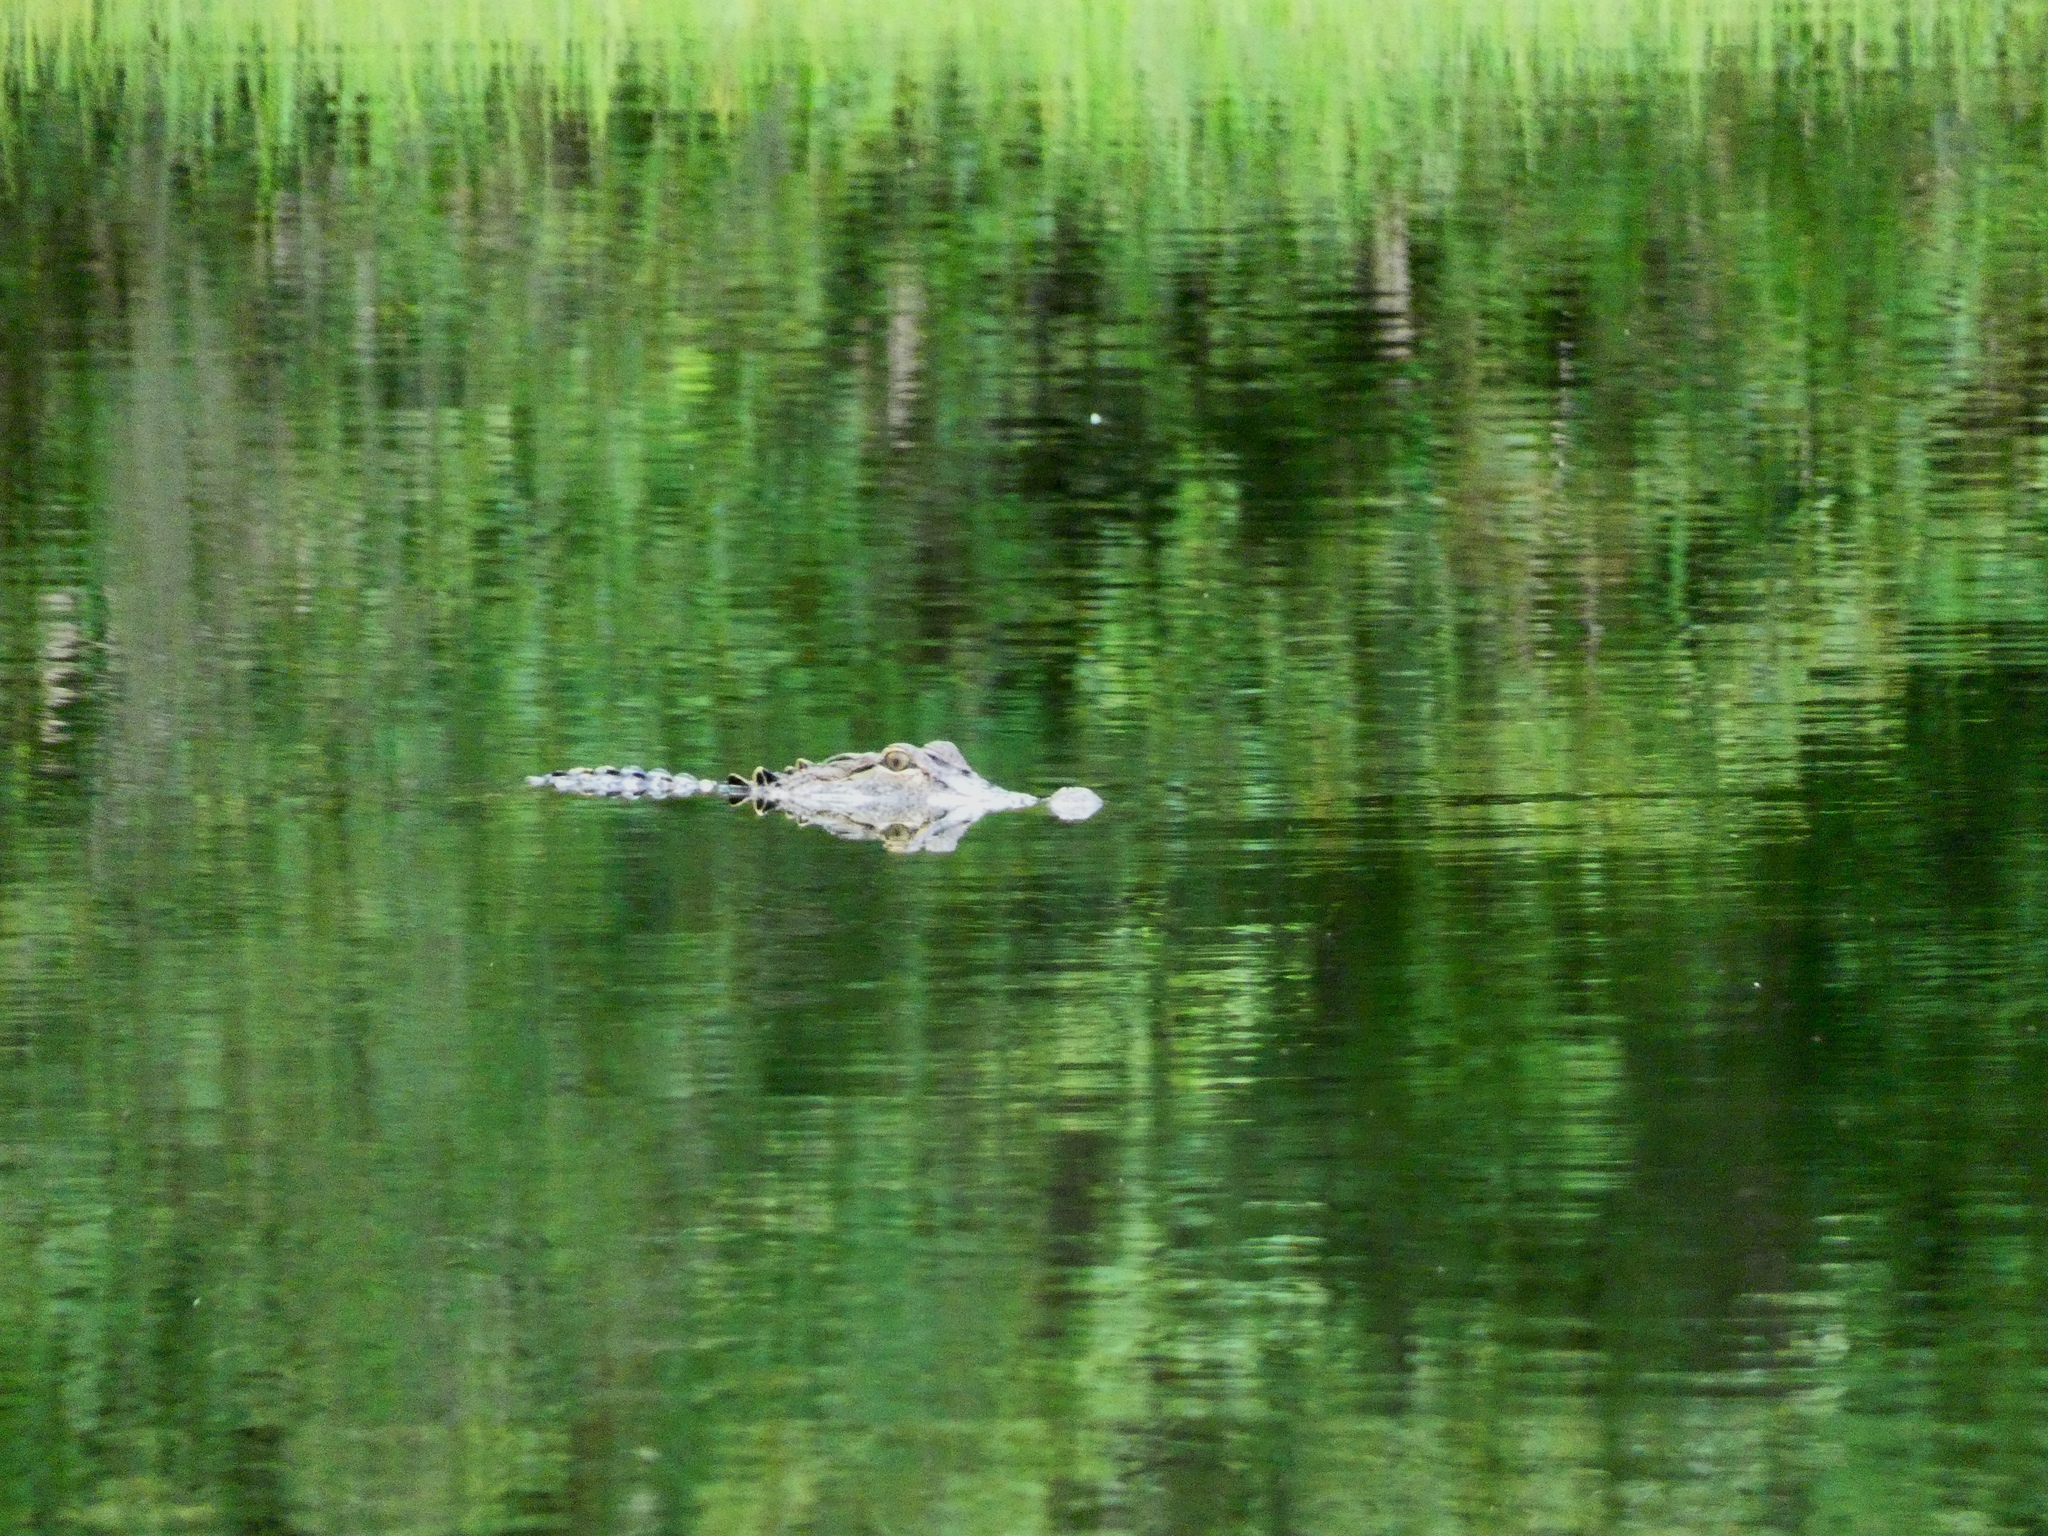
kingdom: Animalia
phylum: Chordata
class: Crocodylia
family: Alligatoridae
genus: Alligator
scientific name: Alligator mississippiensis
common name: American alligator
